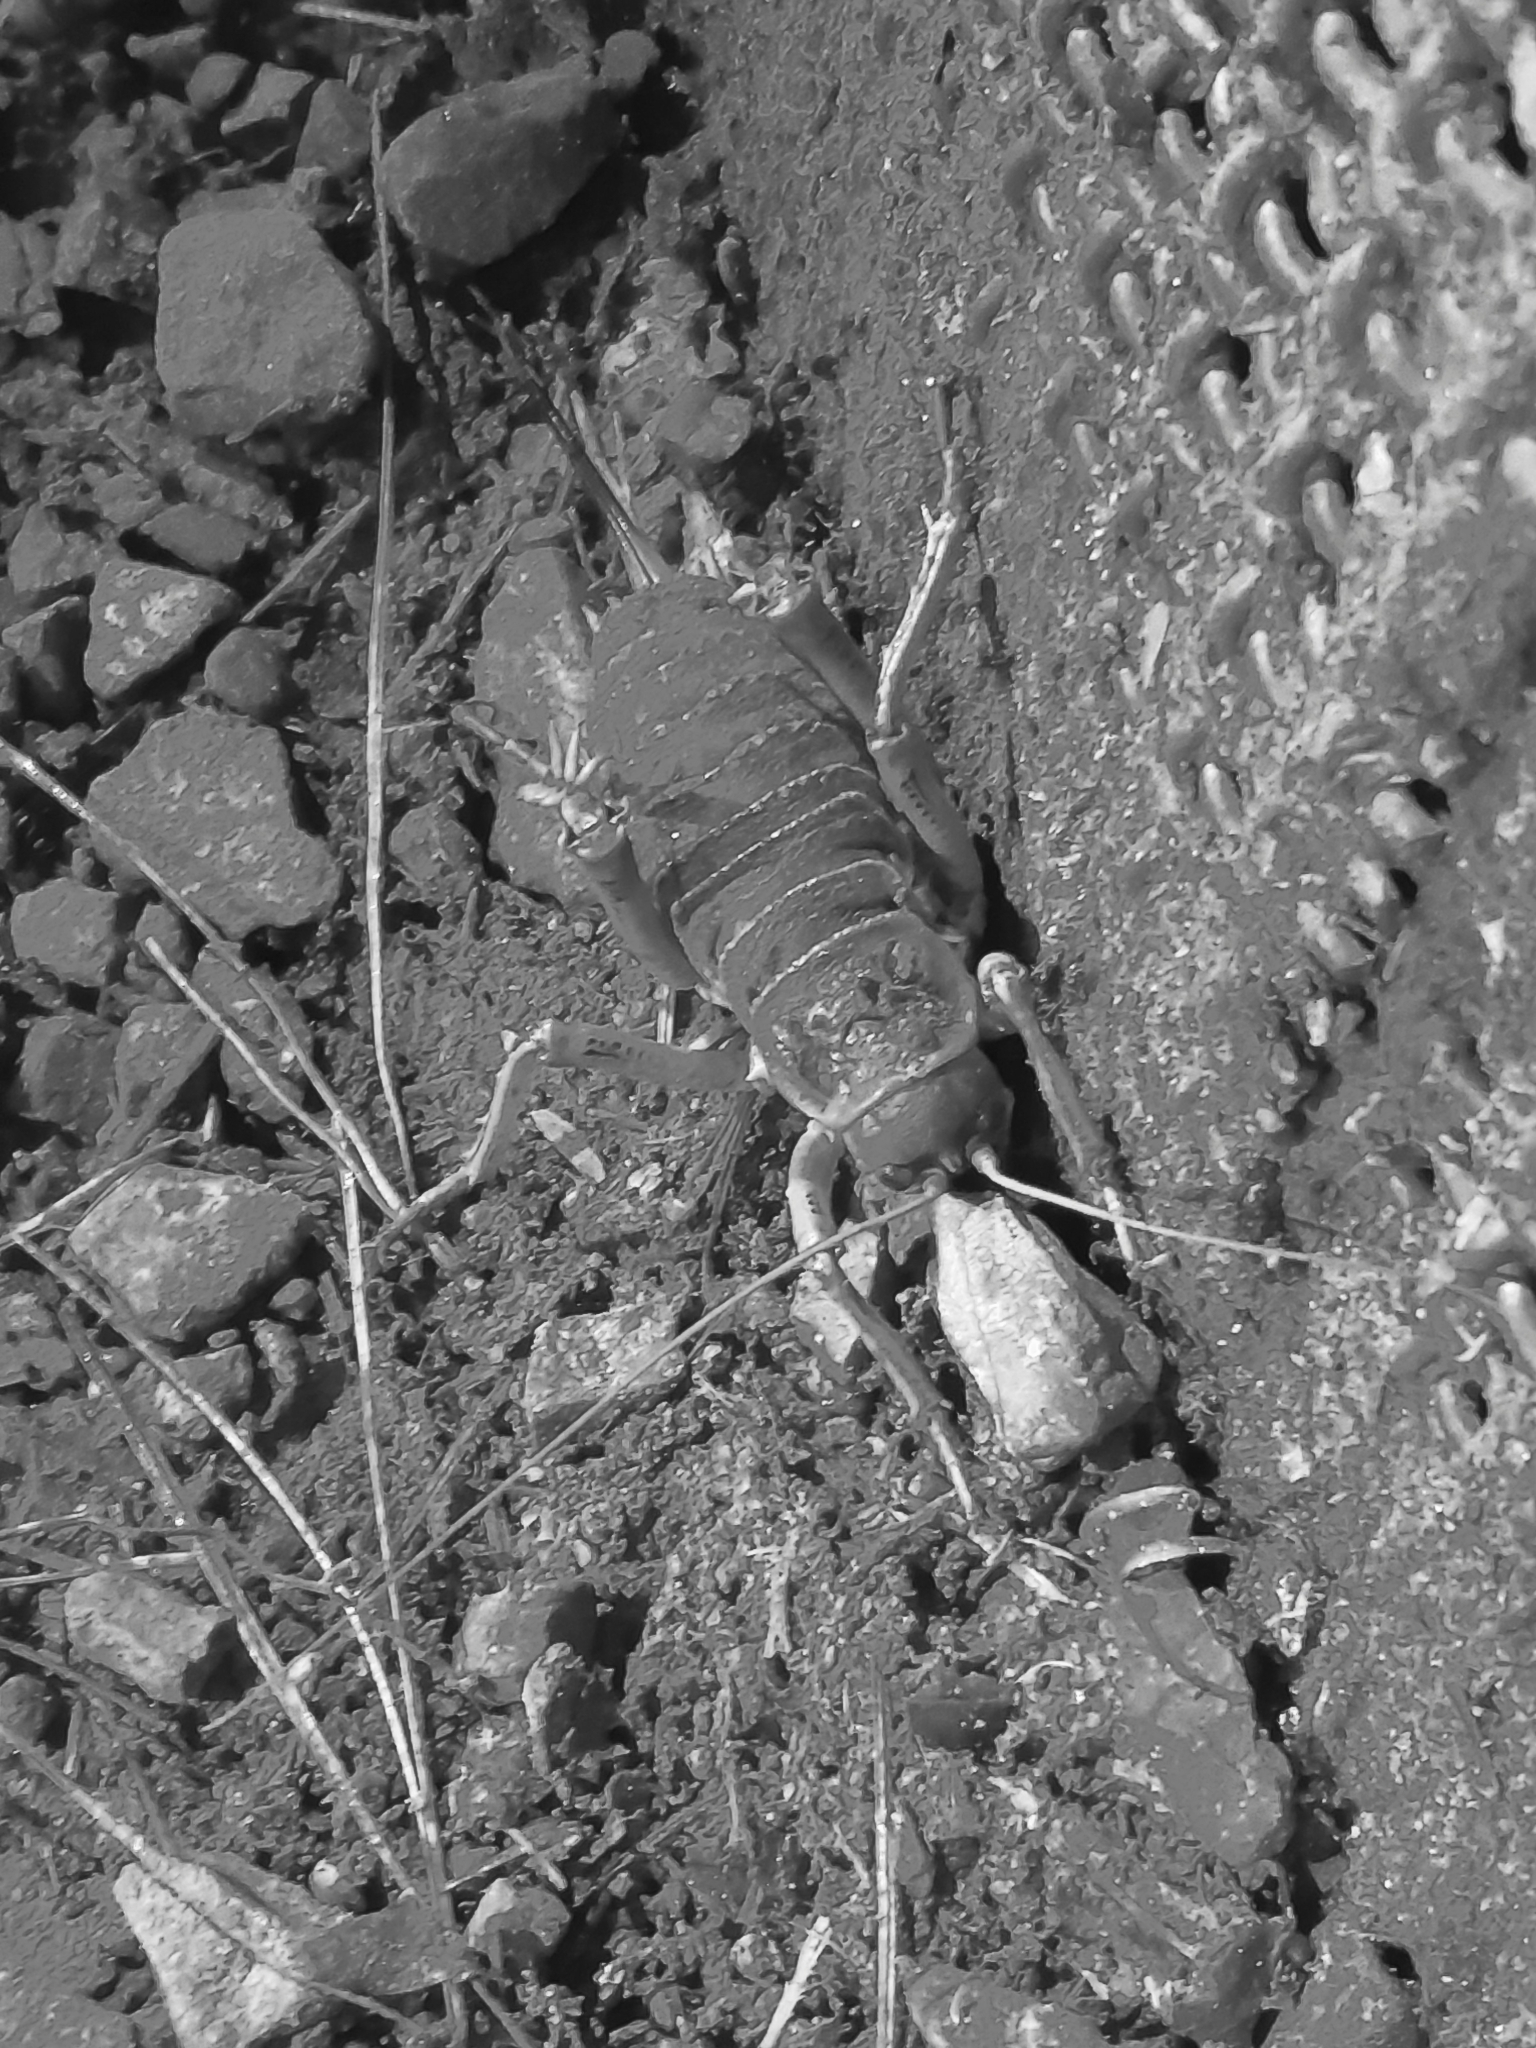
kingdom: Animalia
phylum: Arthropoda
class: Insecta
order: Orthoptera
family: Anostostomatidae
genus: Deinacrida
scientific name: Deinacrida rugosa
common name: Stephens island weta
